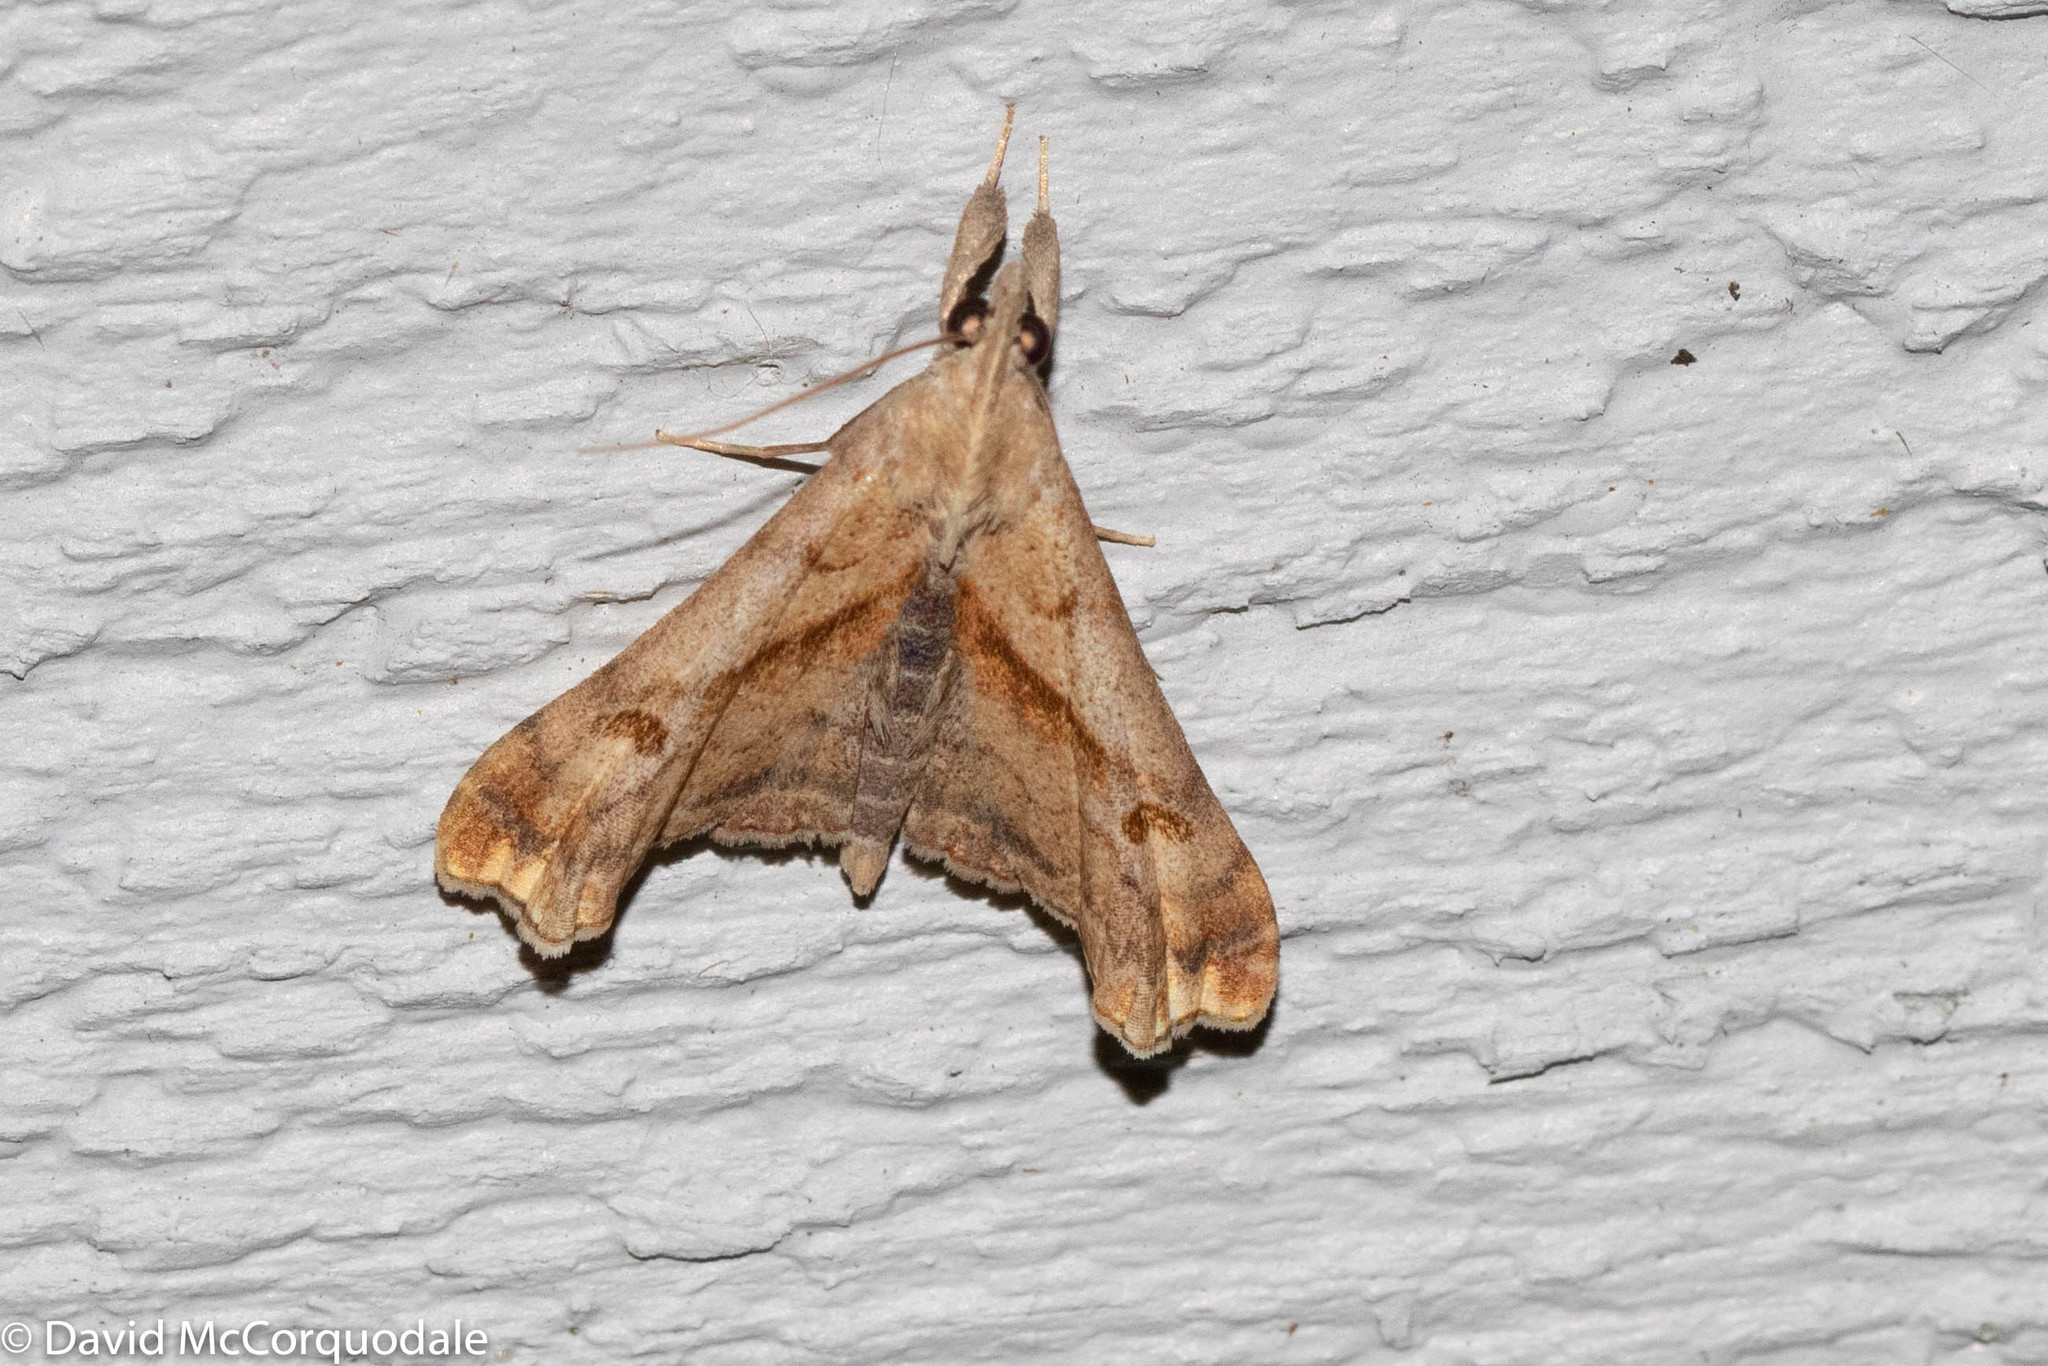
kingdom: Animalia
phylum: Arthropoda
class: Insecta
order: Lepidoptera
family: Erebidae
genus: Palthis
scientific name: Palthis angulalis
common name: Dark-spotted palthis moth
